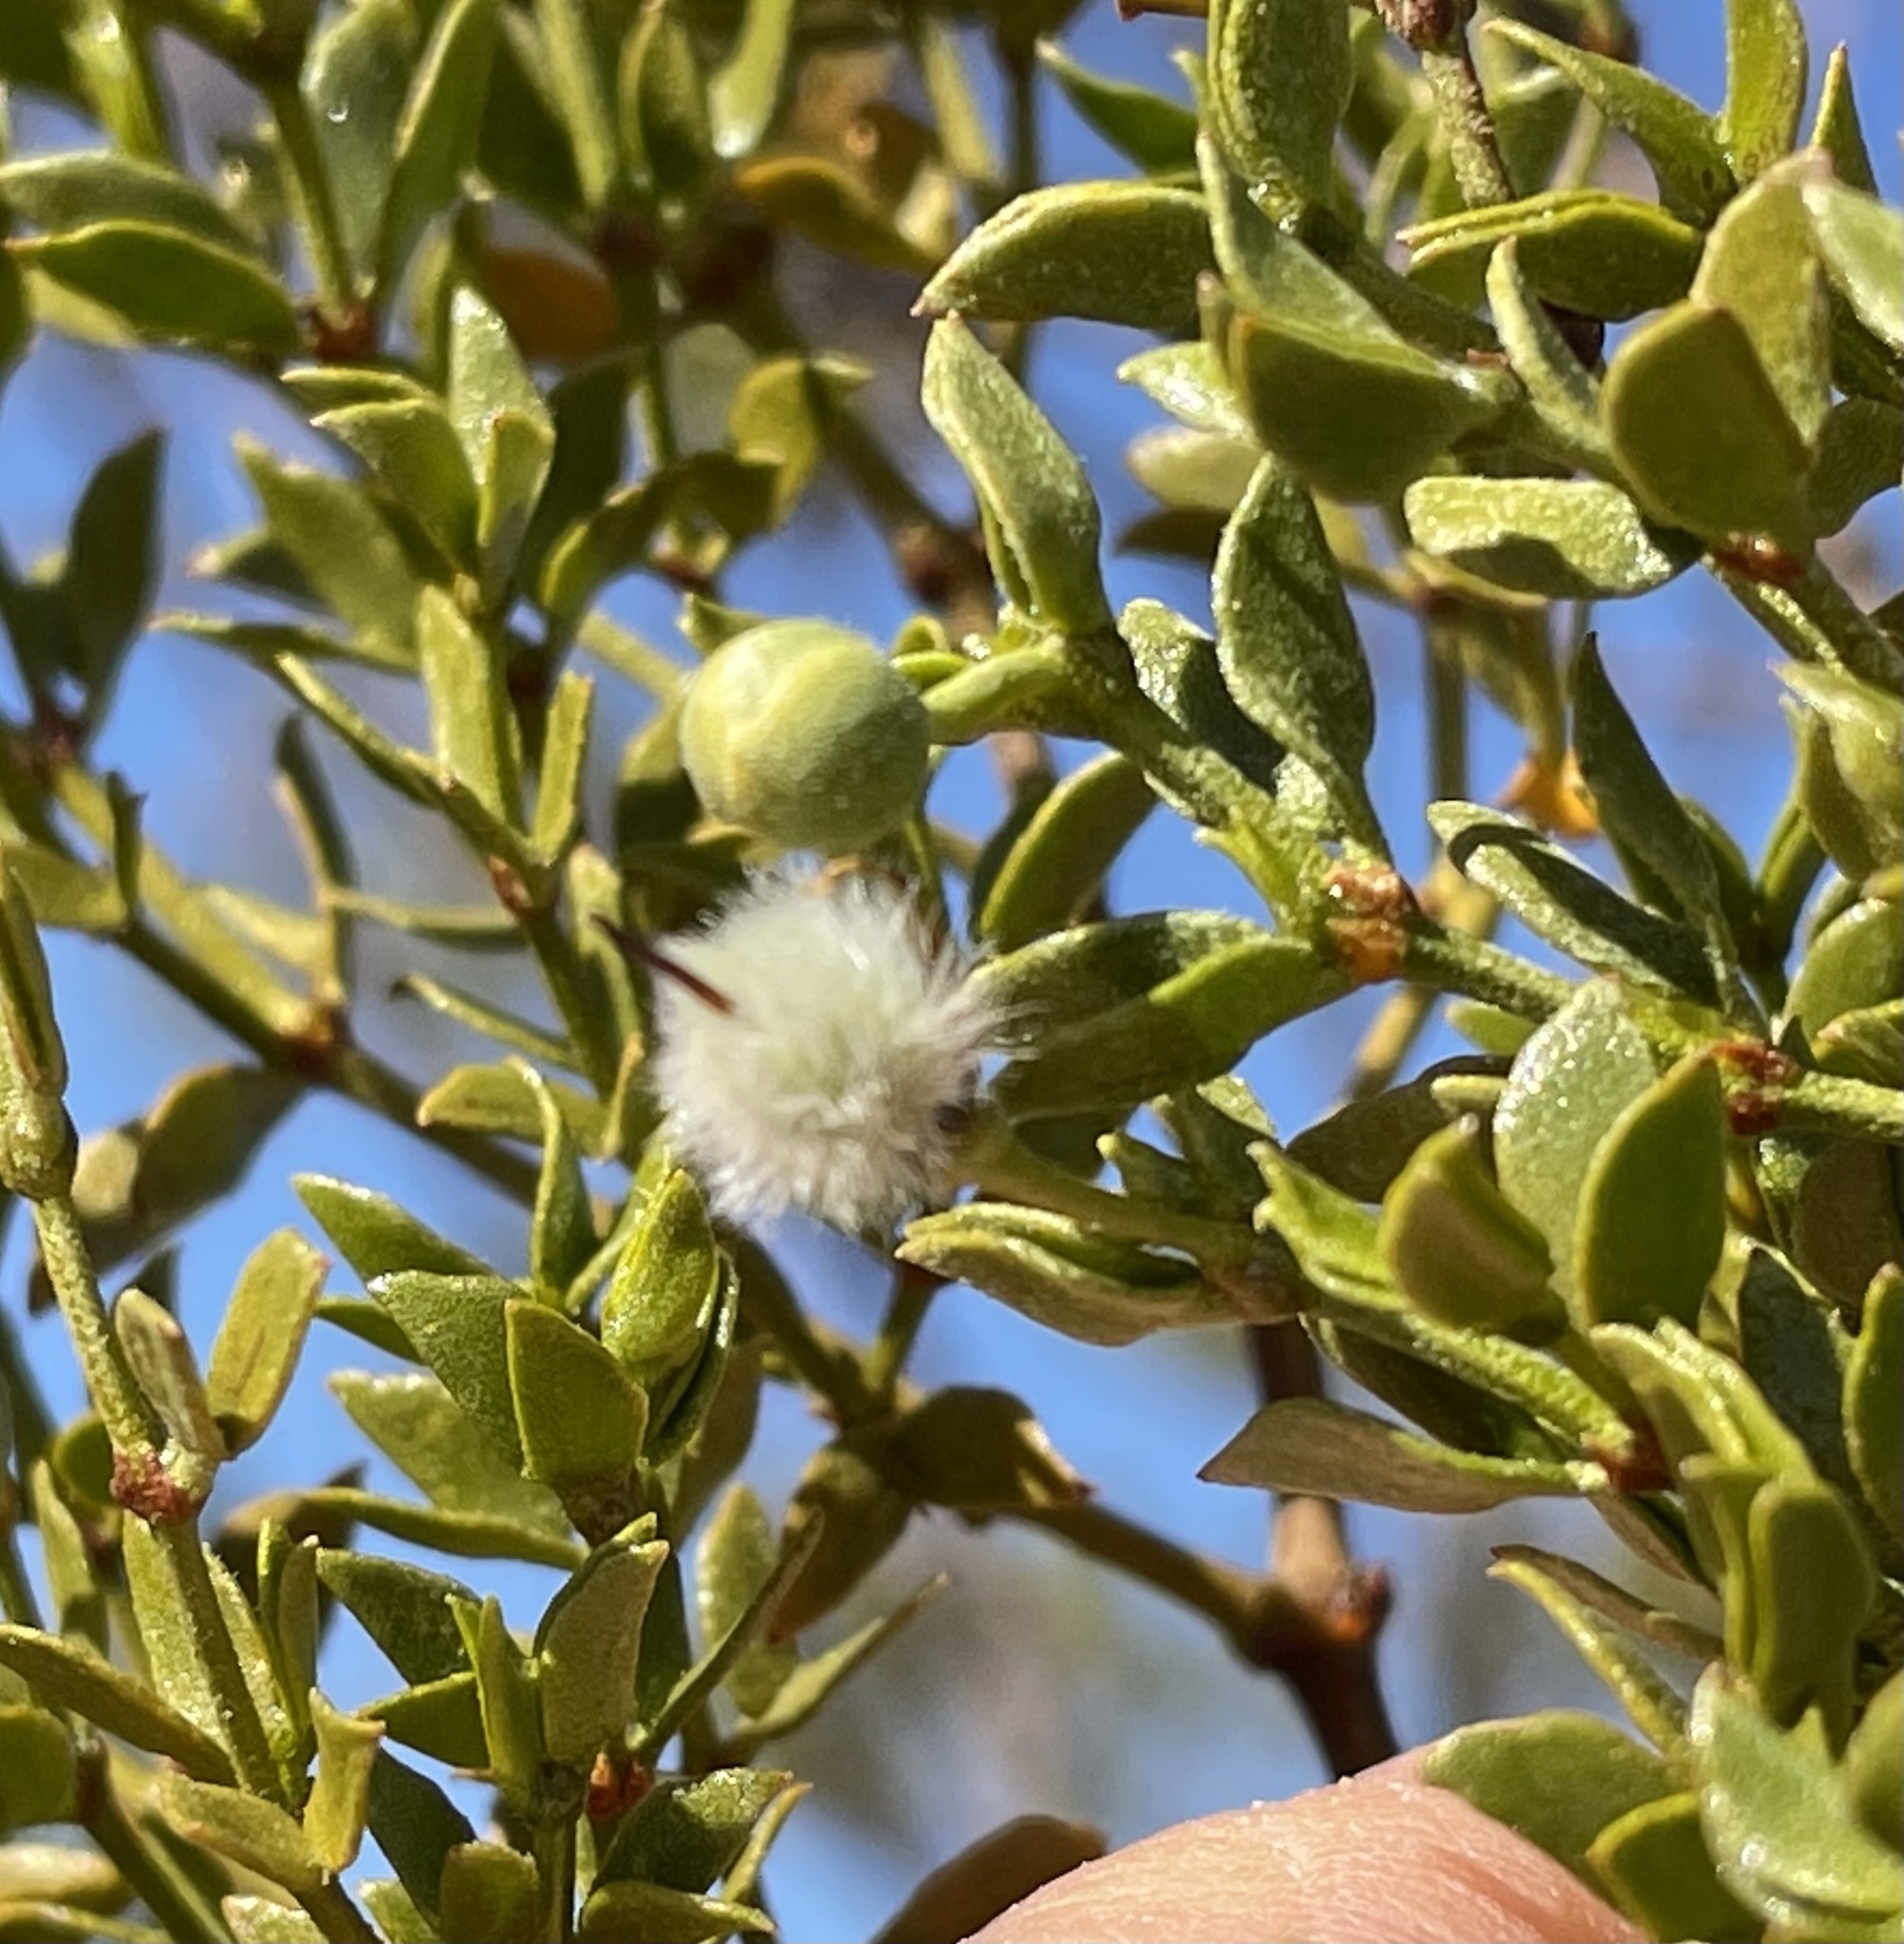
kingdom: Plantae
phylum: Tracheophyta
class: Magnoliopsida
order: Zygophyllales
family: Zygophyllaceae
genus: Larrea
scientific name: Larrea tridentata
